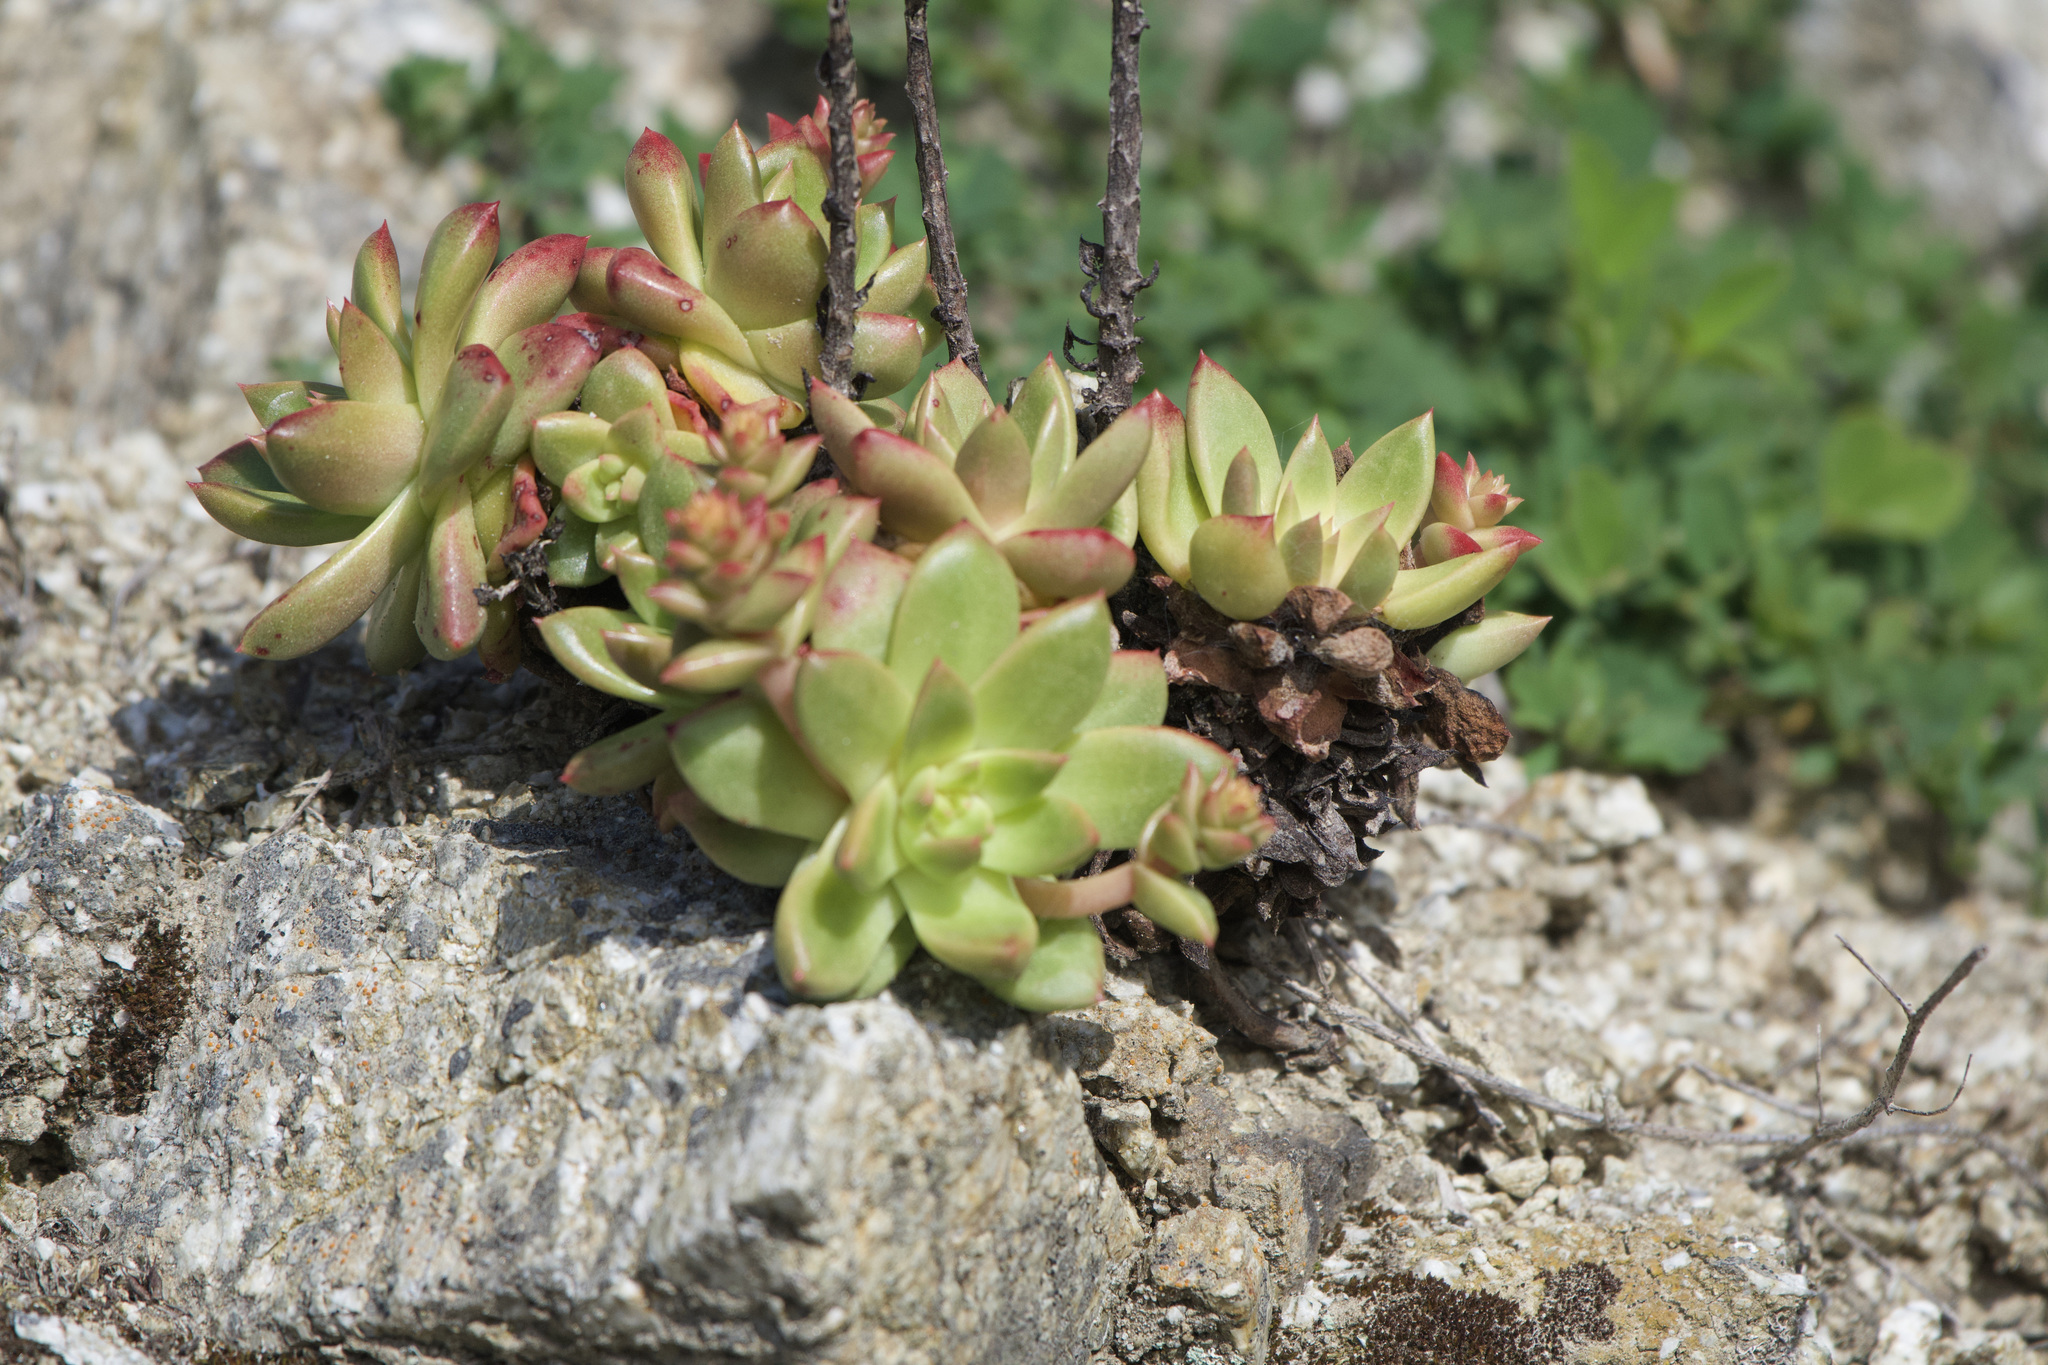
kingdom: Plantae
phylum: Tracheophyta
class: Magnoliopsida
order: Saxifragales
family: Crassulaceae
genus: Dudleya
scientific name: Dudleya farinosa
